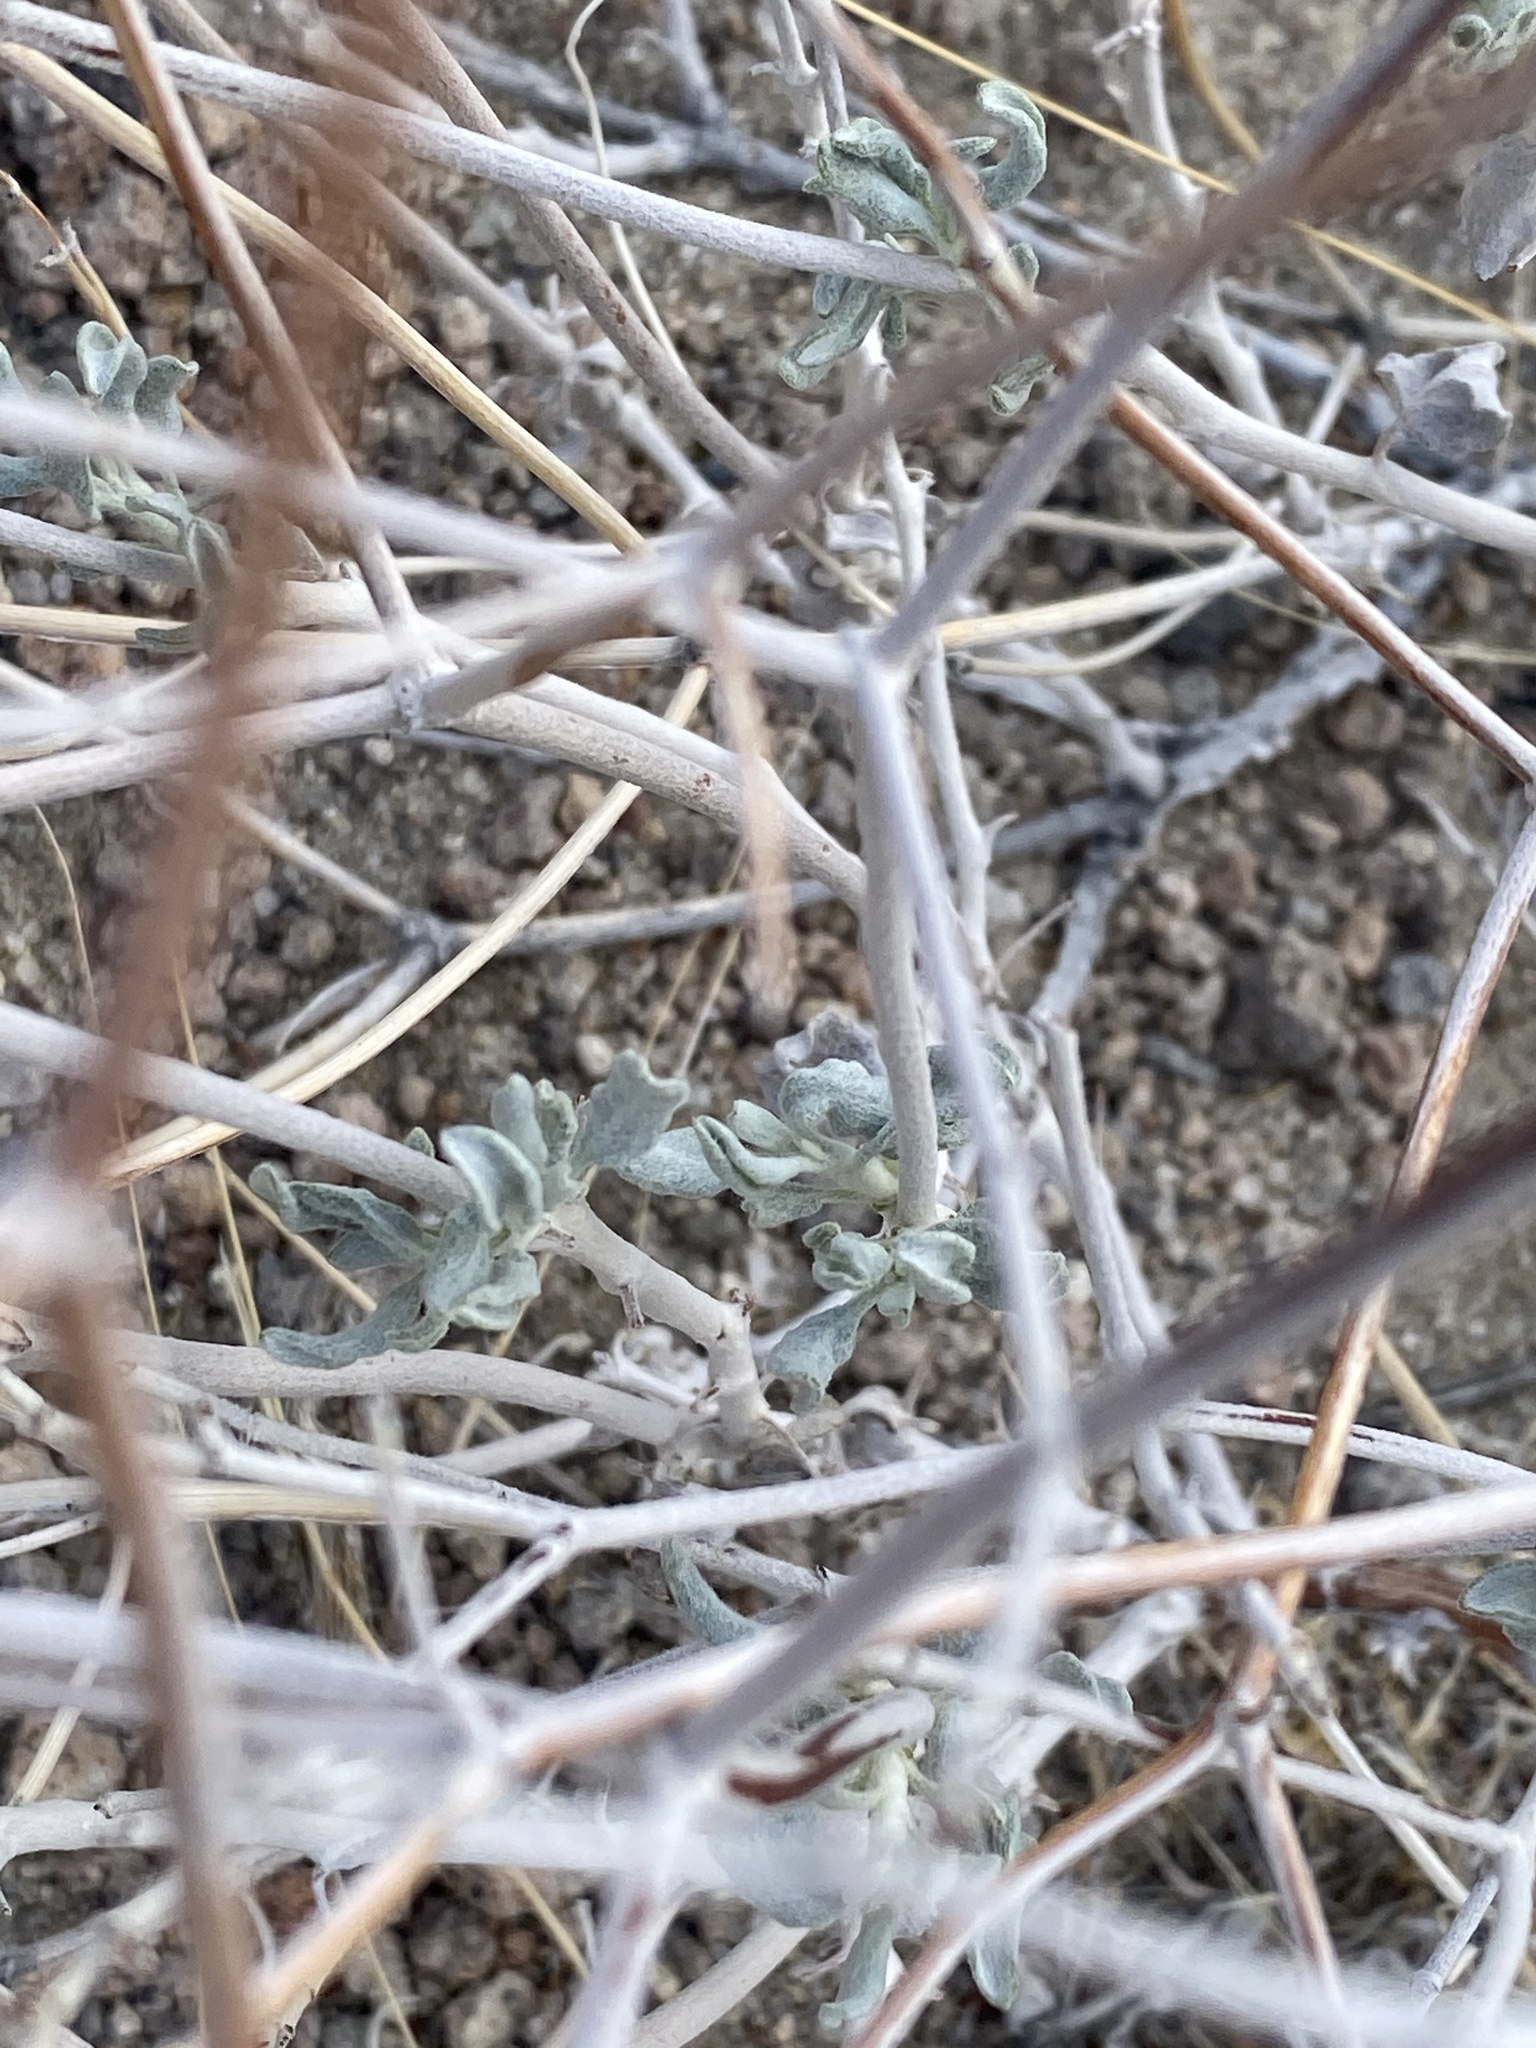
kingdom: Plantae
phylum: Tracheophyta
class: Magnoliopsida
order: Caryophyllales
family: Polygonaceae
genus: Eriogonum
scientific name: Eriogonum nummulare
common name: Kearney wild buckwheat
